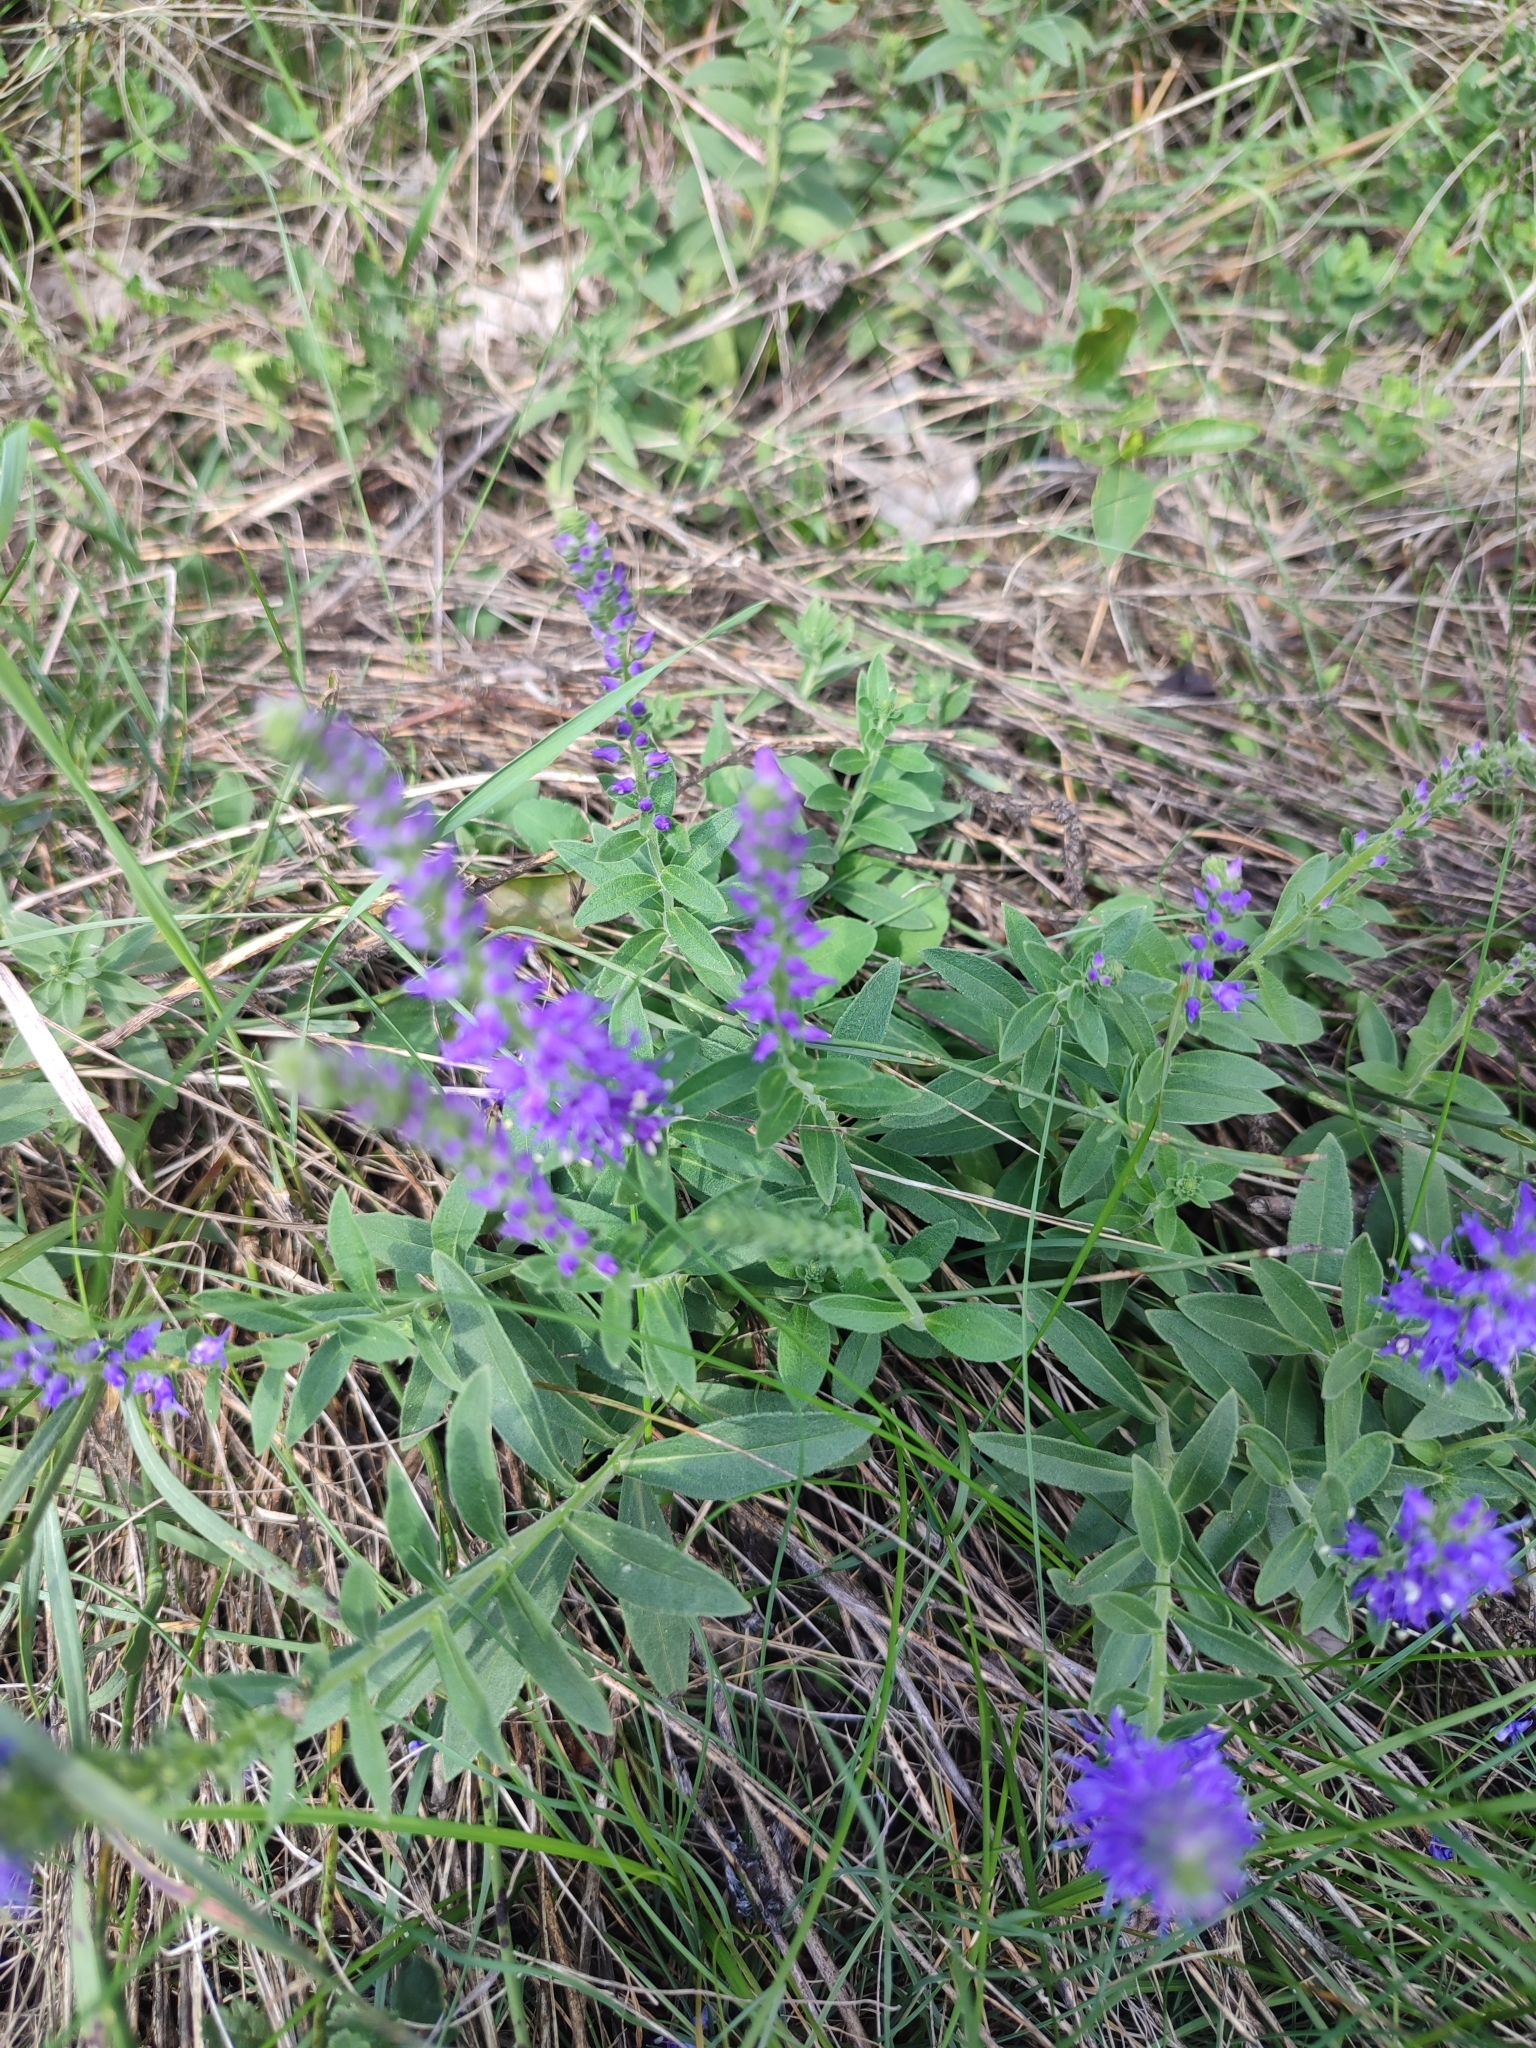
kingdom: Plantae
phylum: Tracheophyta
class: Magnoliopsida
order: Lamiales
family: Plantaginaceae
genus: Veronica
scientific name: Veronica spicata
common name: Spiked speedwell
